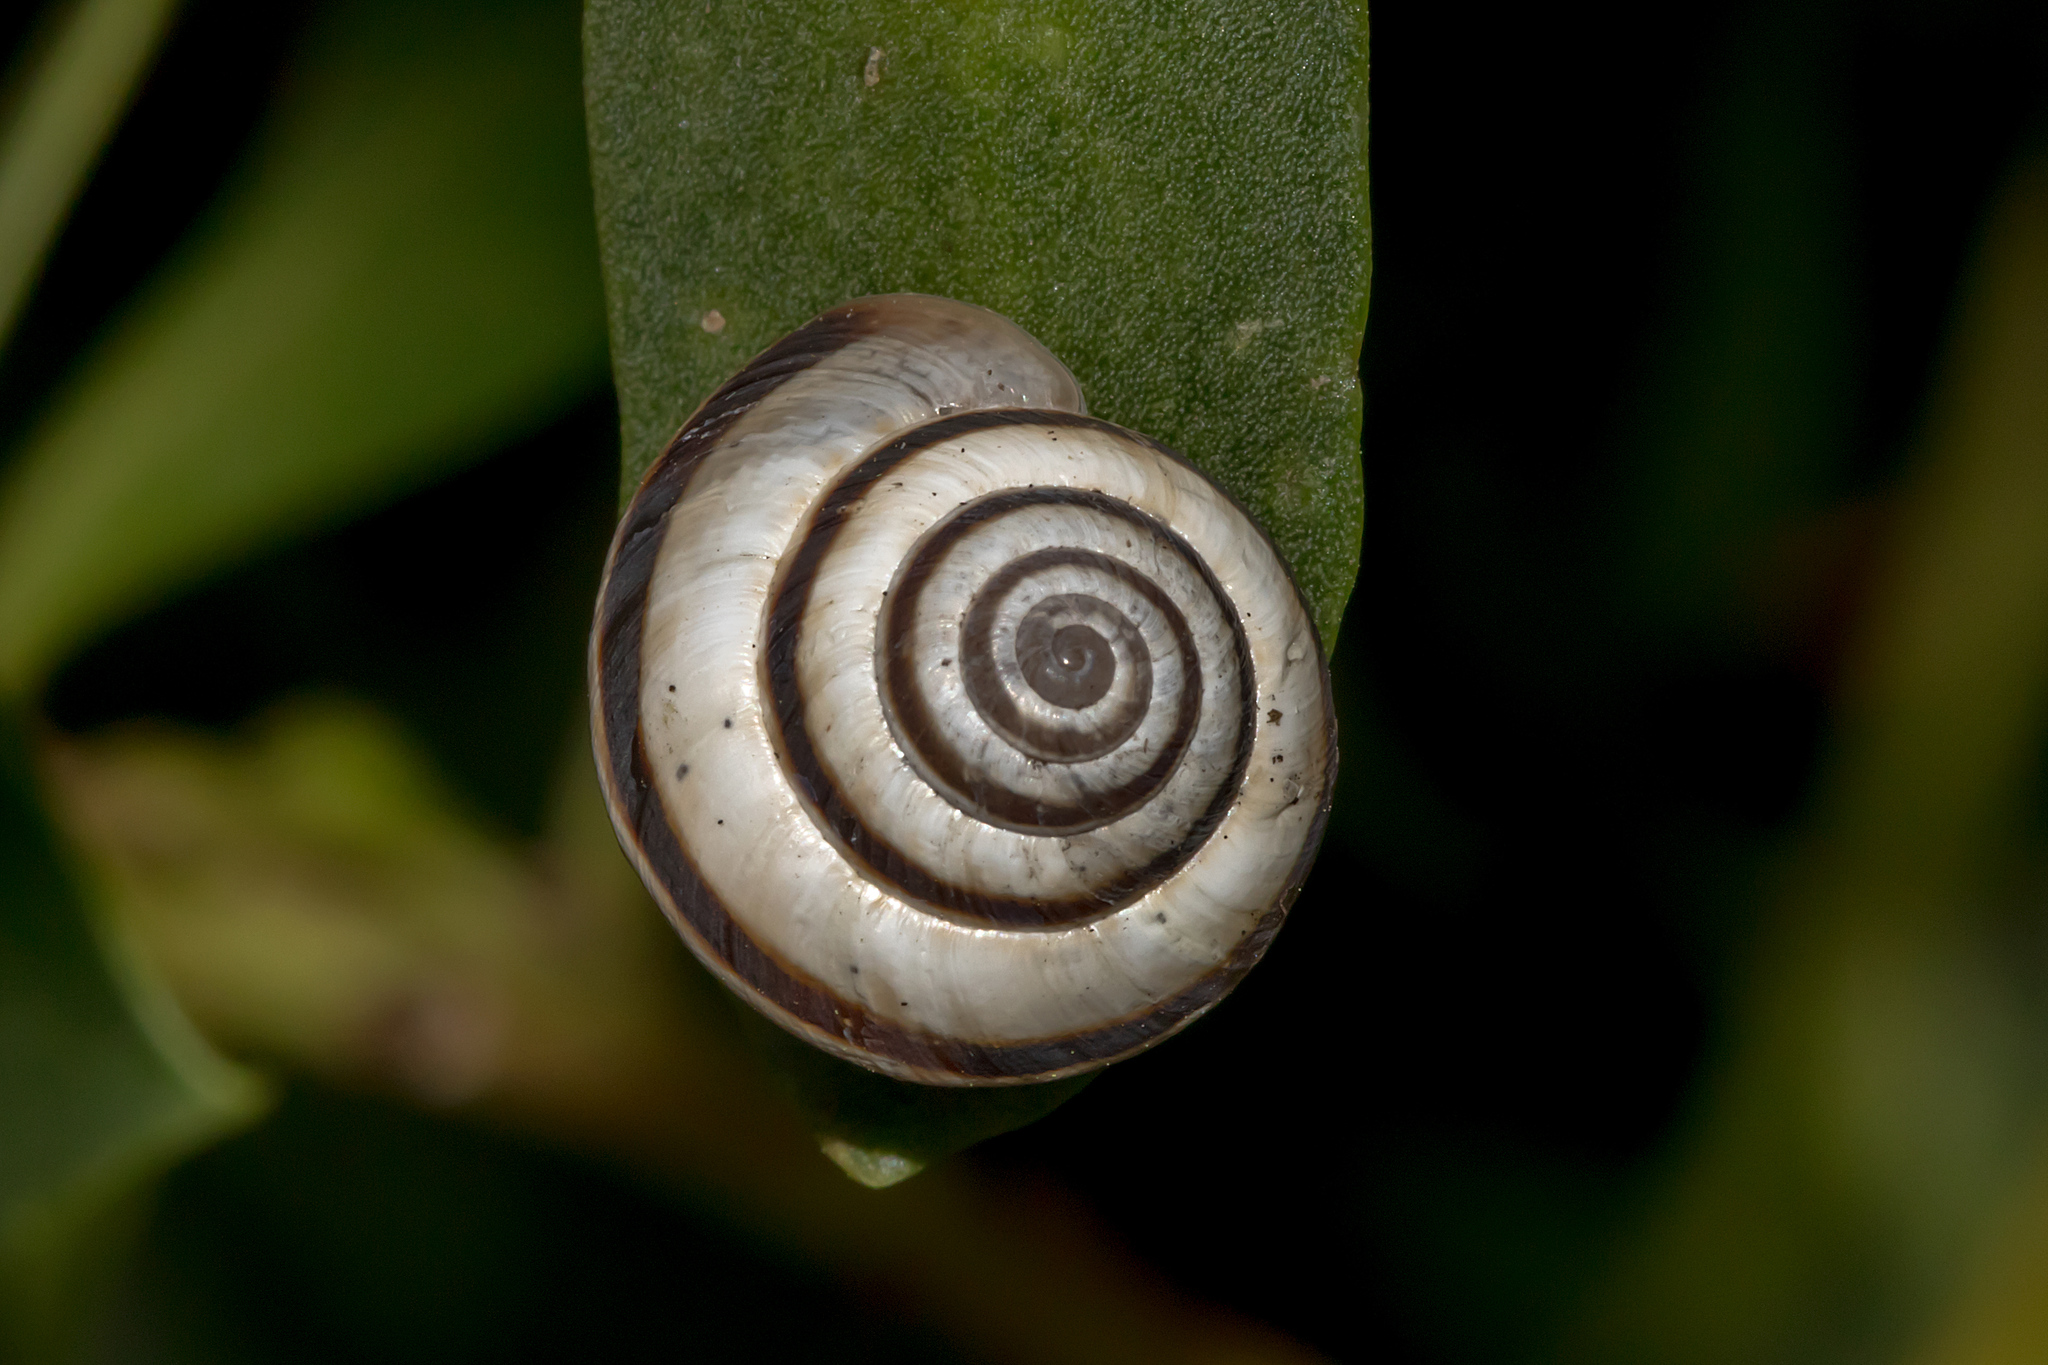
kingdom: Animalia
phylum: Mollusca
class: Gastropoda
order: Stylommatophora
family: Geomitridae
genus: Cernuella
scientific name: Cernuella virgata
